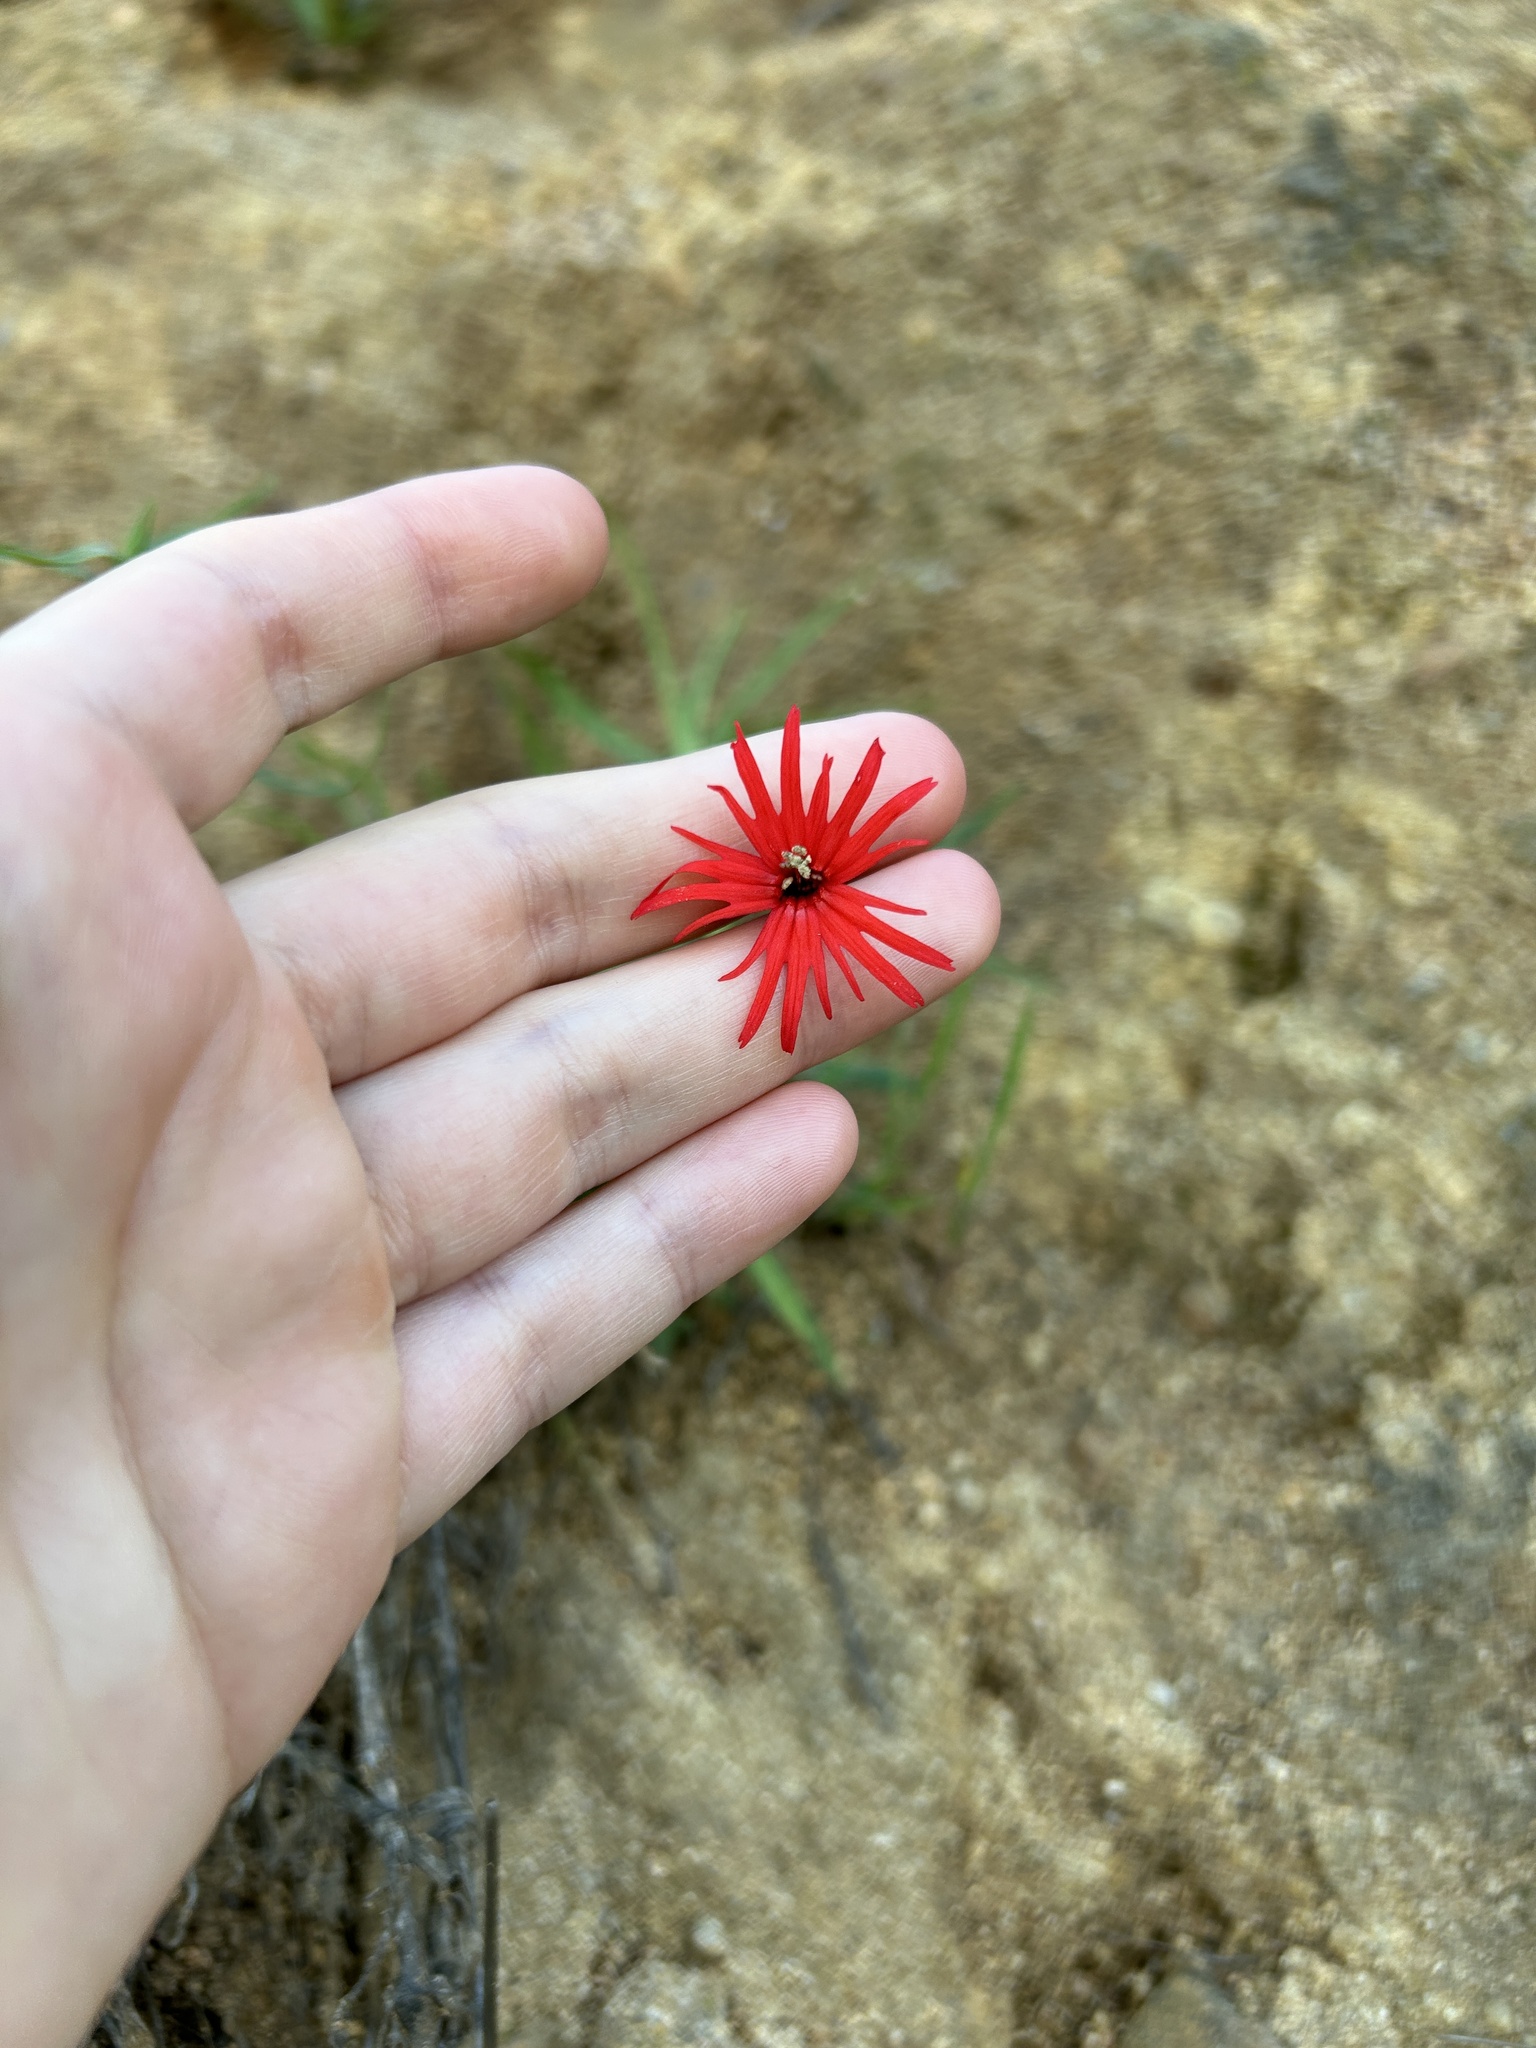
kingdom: Plantae
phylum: Tracheophyta
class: Magnoliopsida
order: Caryophyllales
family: Caryophyllaceae
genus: Silene
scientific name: Silene laciniata
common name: Indian-pink
